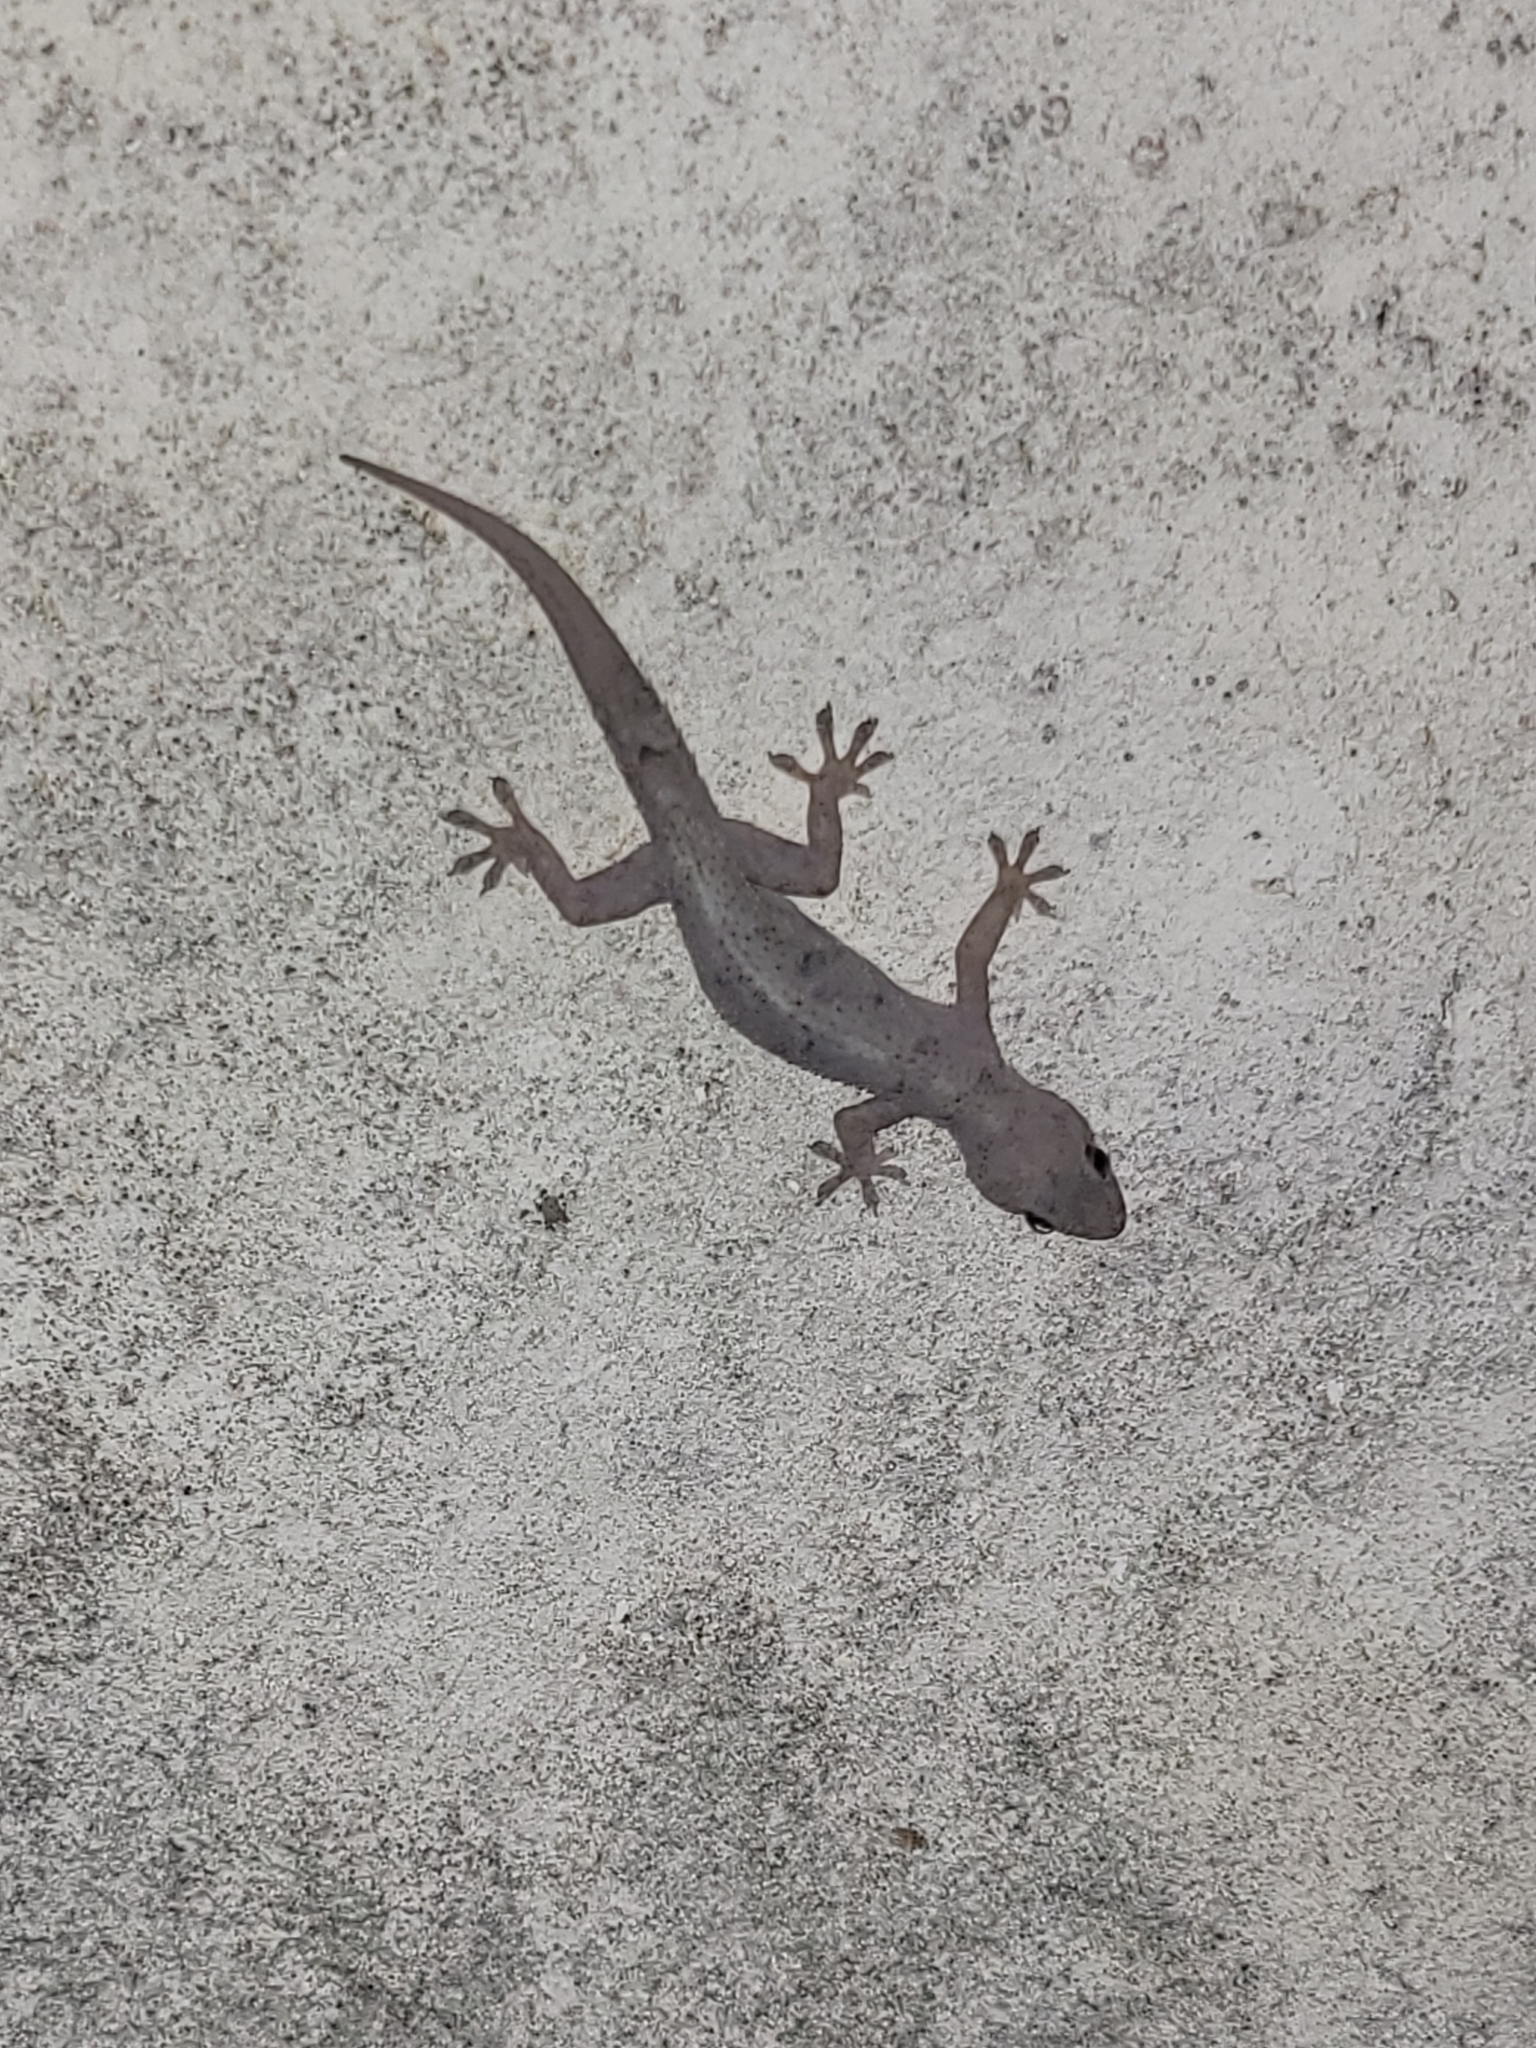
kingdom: Animalia
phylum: Chordata
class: Squamata
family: Gekkonidae
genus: Hemidactylus
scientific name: Hemidactylus mabouia
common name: House gecko
